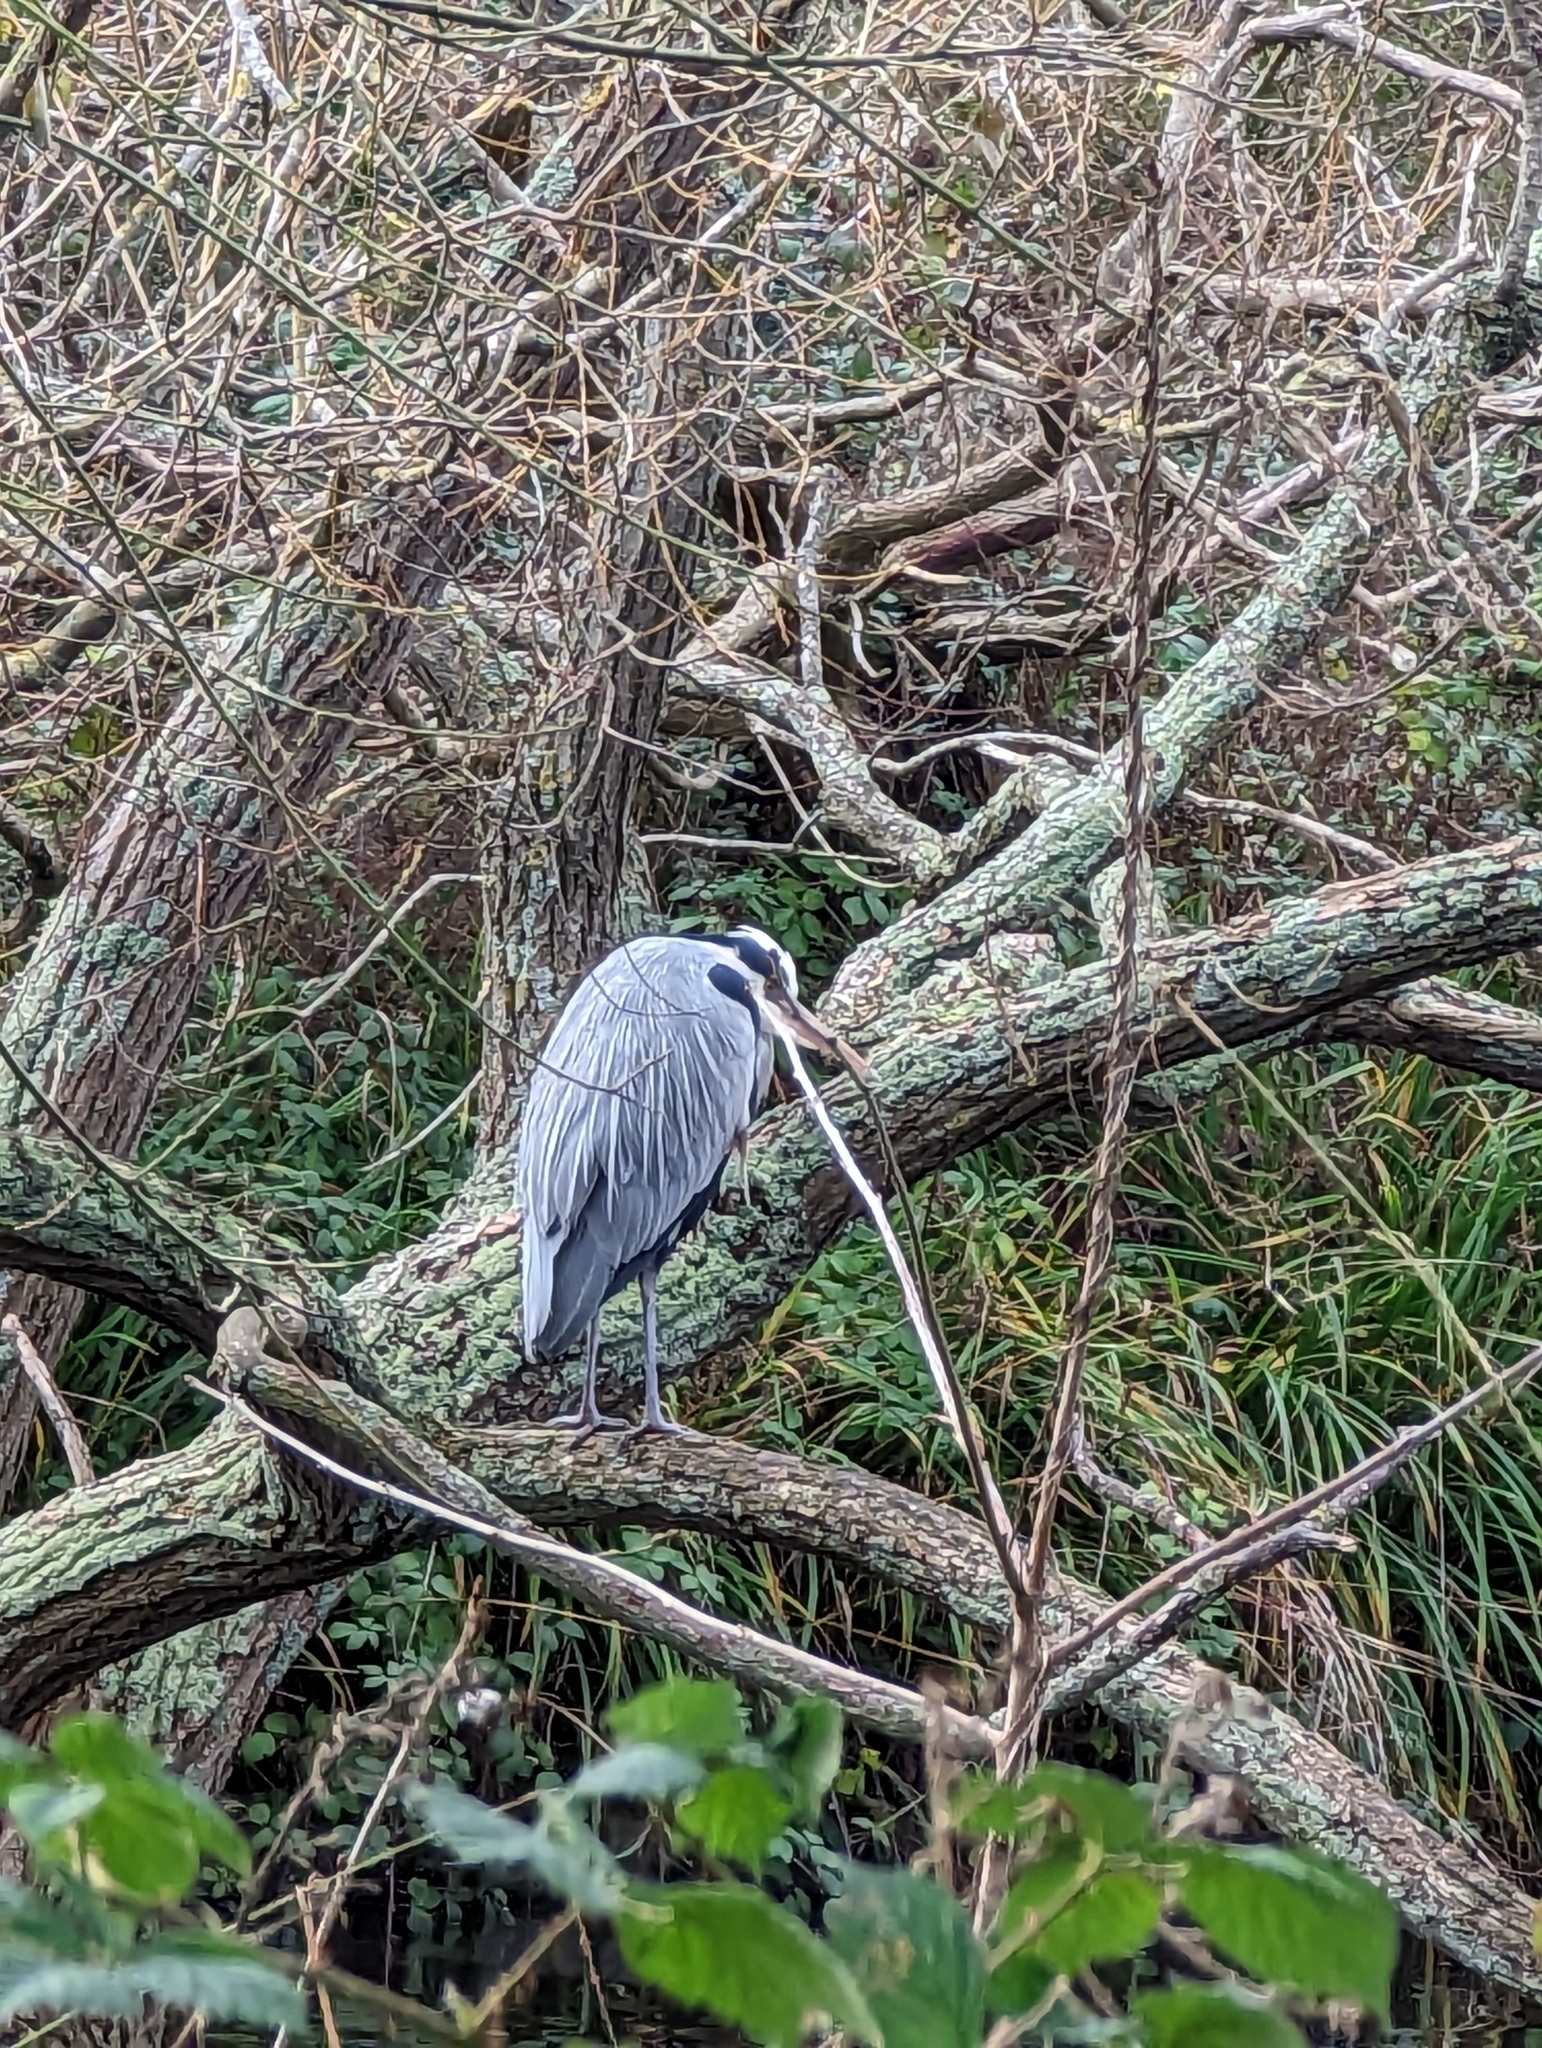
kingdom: Animalia
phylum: Chordata
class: Aves
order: Pelecaniformes
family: Ardeidae
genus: Ardea
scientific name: Ardea cinerea
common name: Grey heron
